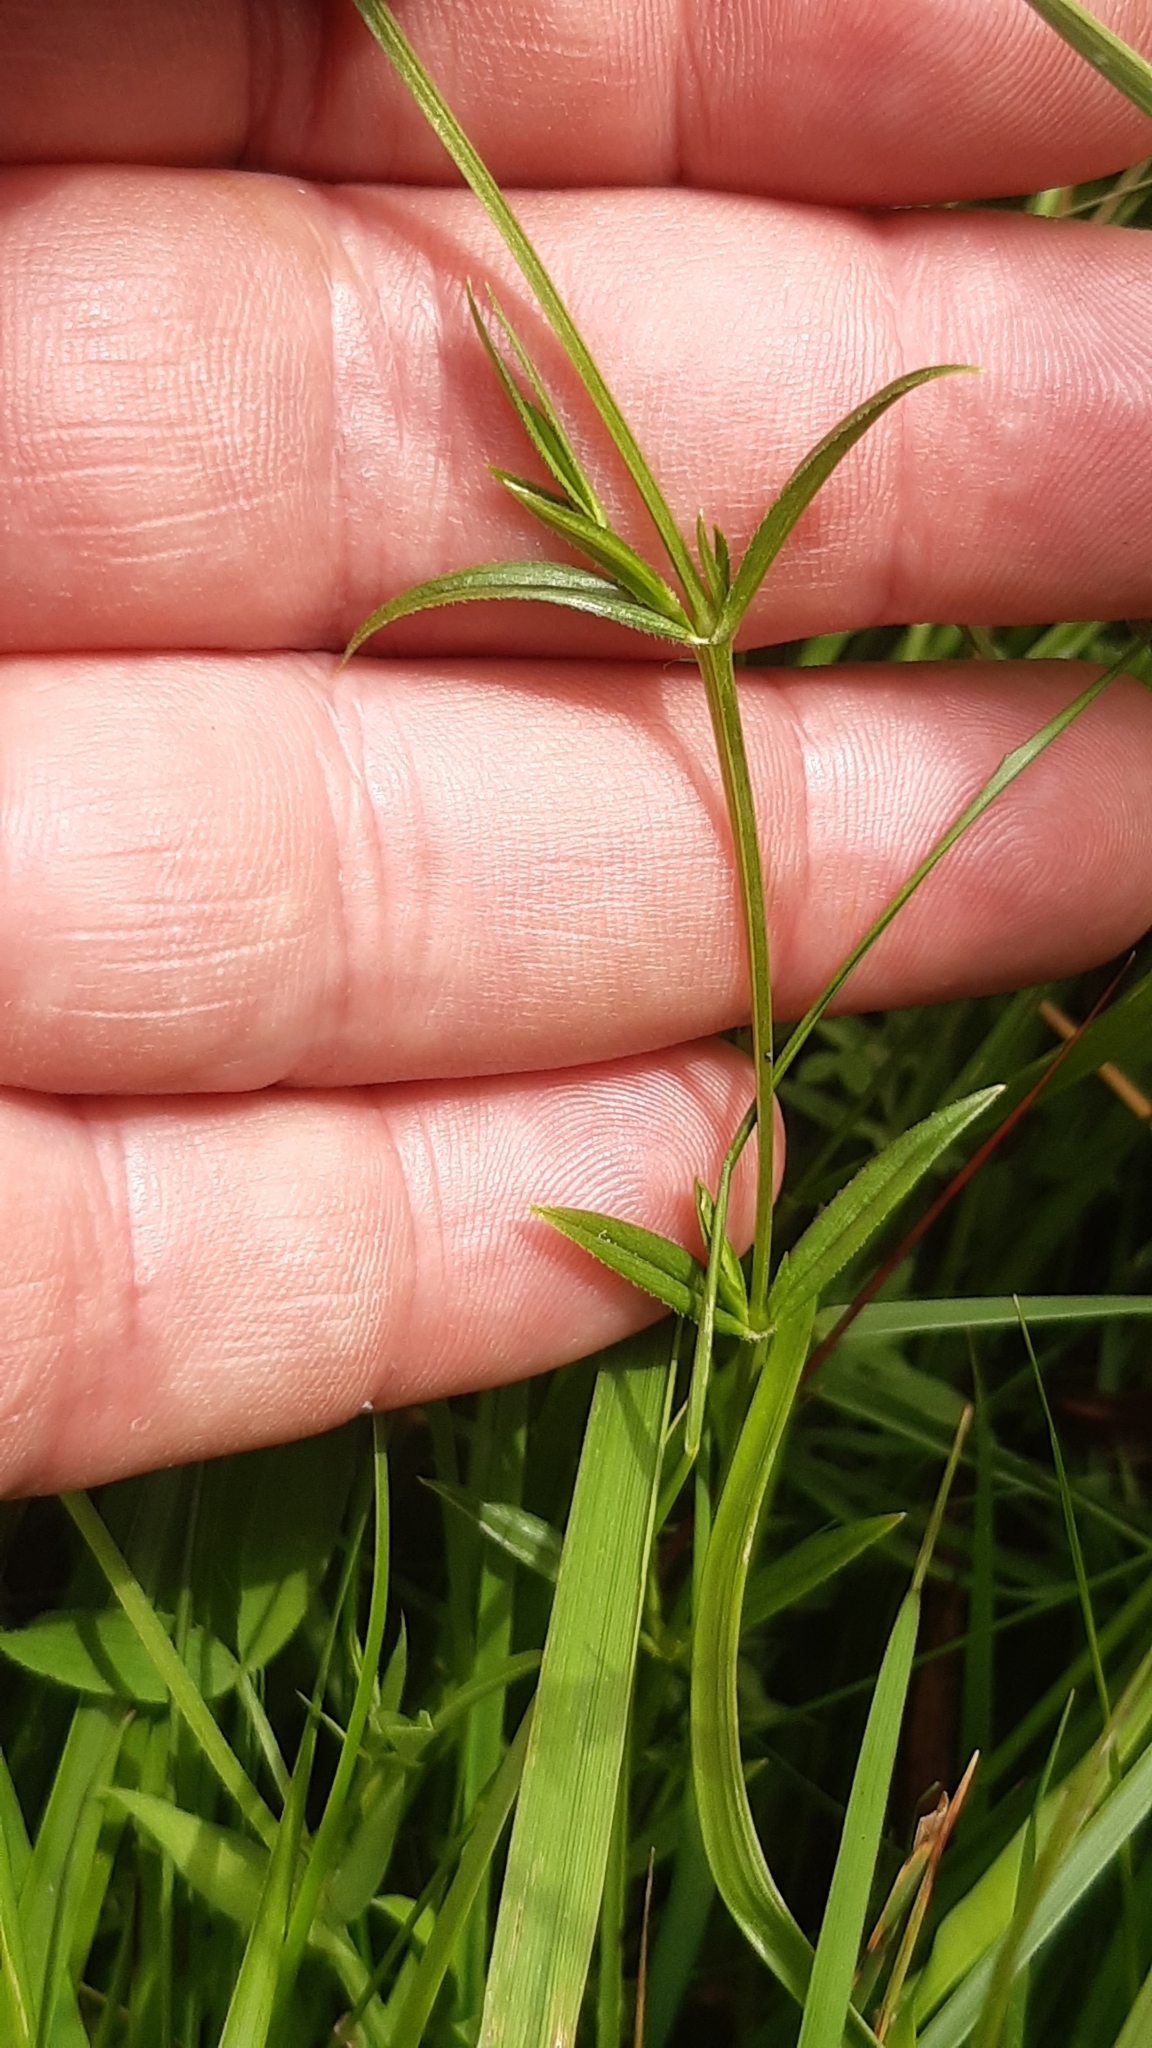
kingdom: Plantae
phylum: Tracheophyta
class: Magnoliopsida
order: Caryophyllales
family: Caryophyllaceae
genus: Stellaria
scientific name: Stellaria graminea
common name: Grass-like starwort
